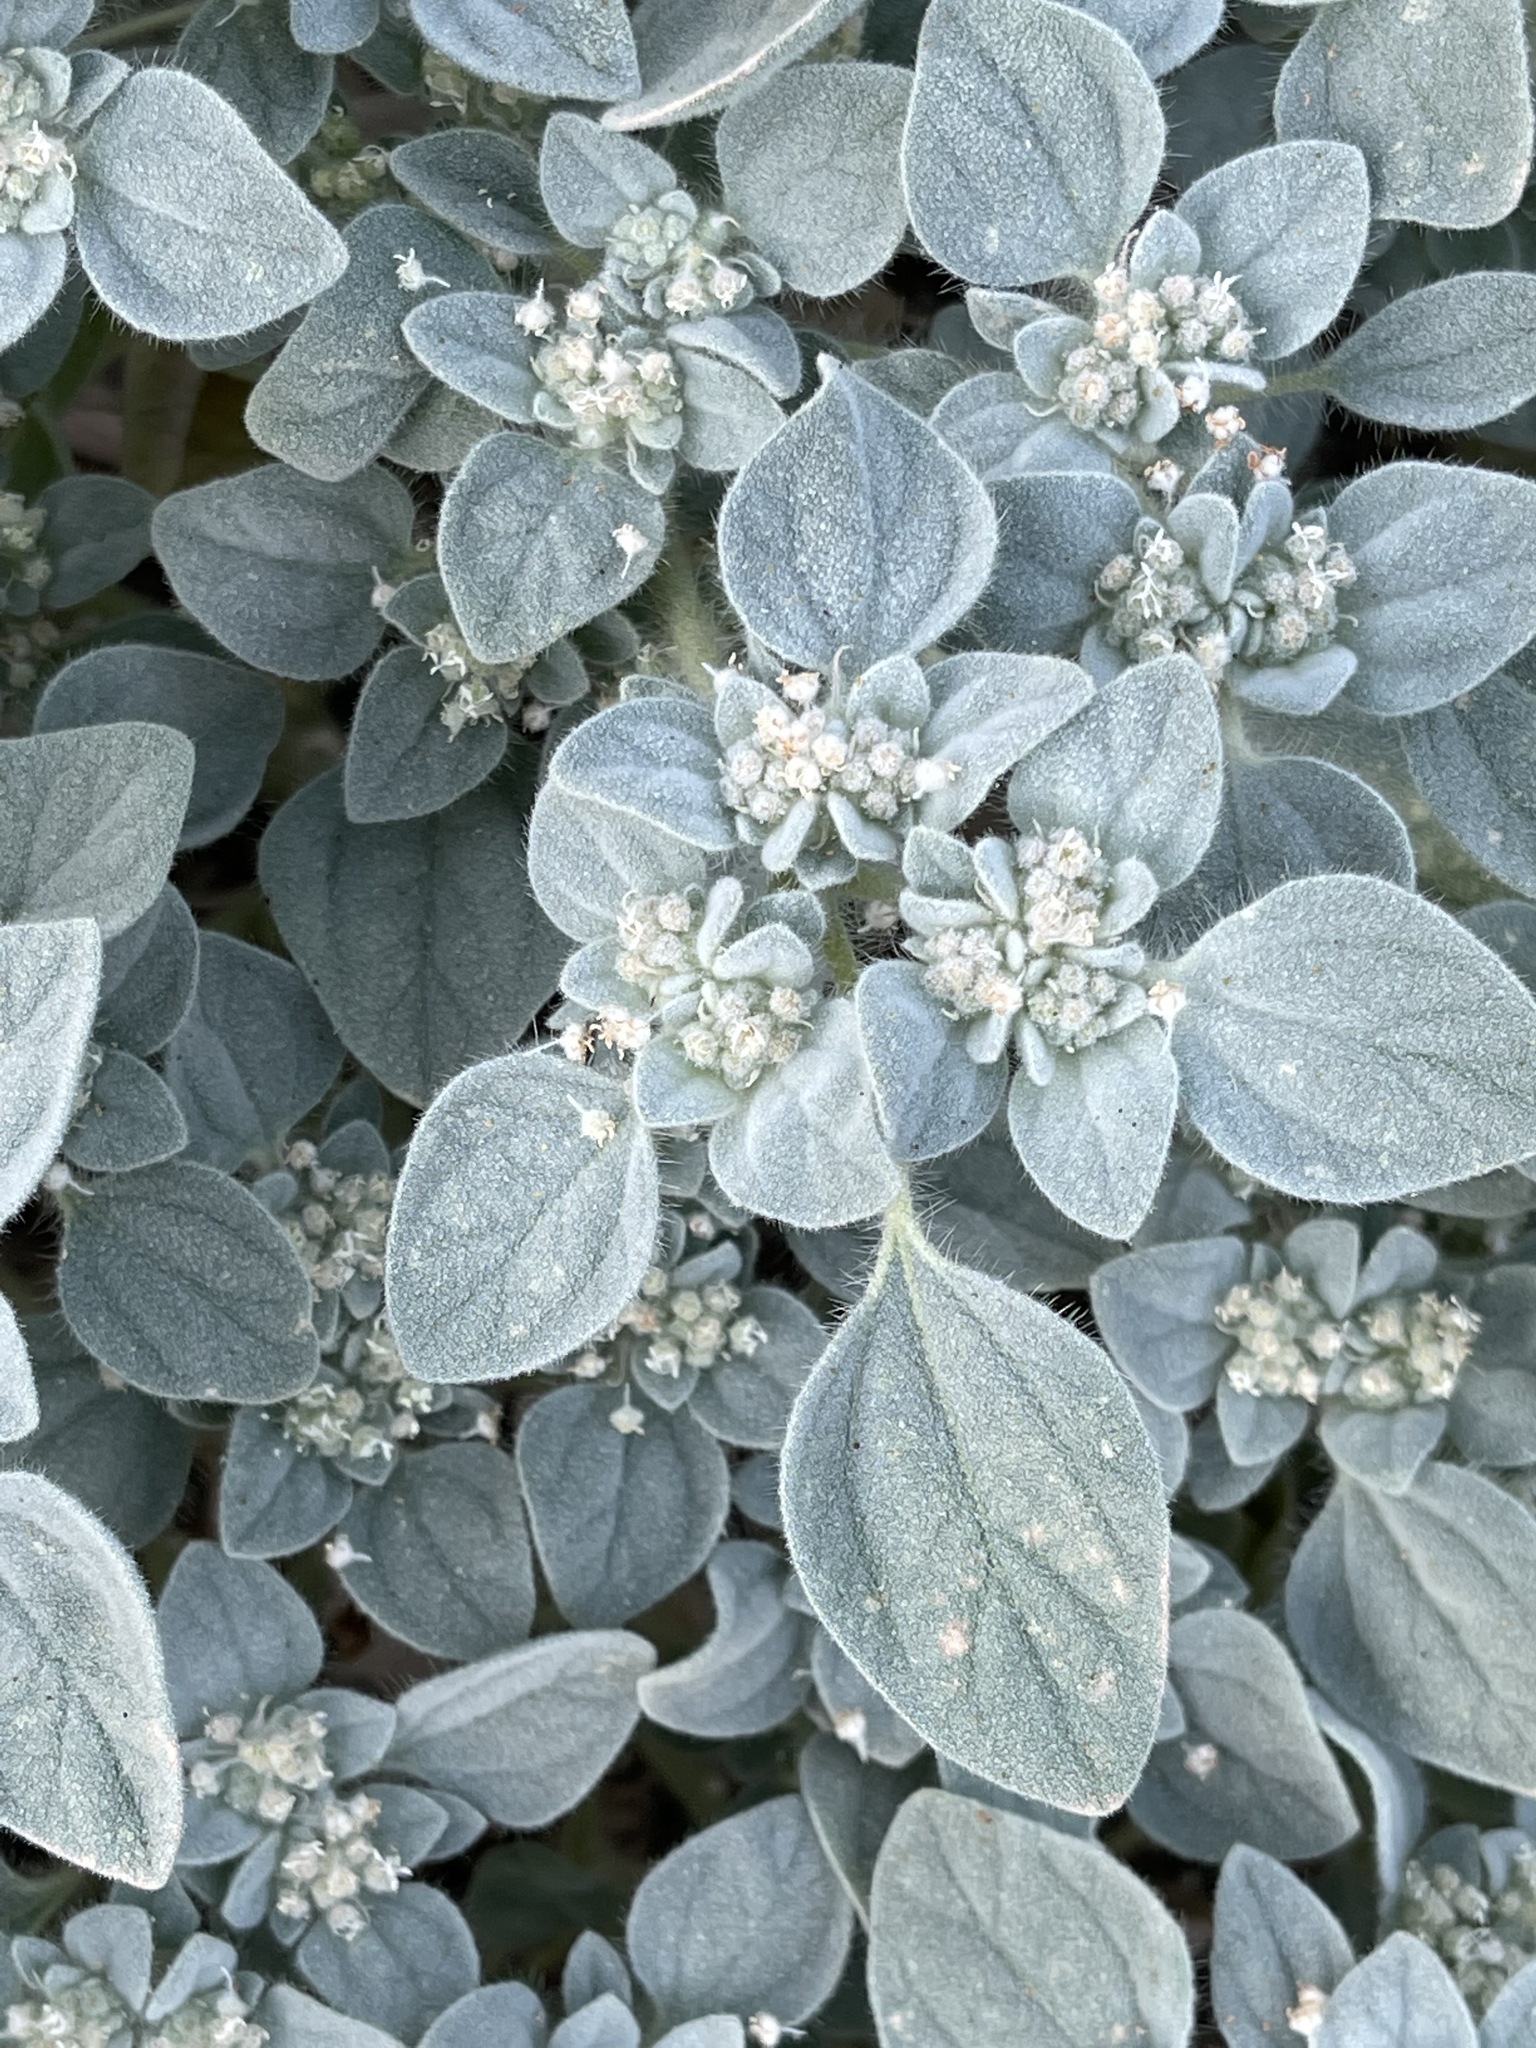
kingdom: Plantae
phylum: Tracheophyta
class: Magnoliopsida
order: Malpighiales
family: Euphorbiaceae
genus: Croton
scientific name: Croton setiger
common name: Dove weed
